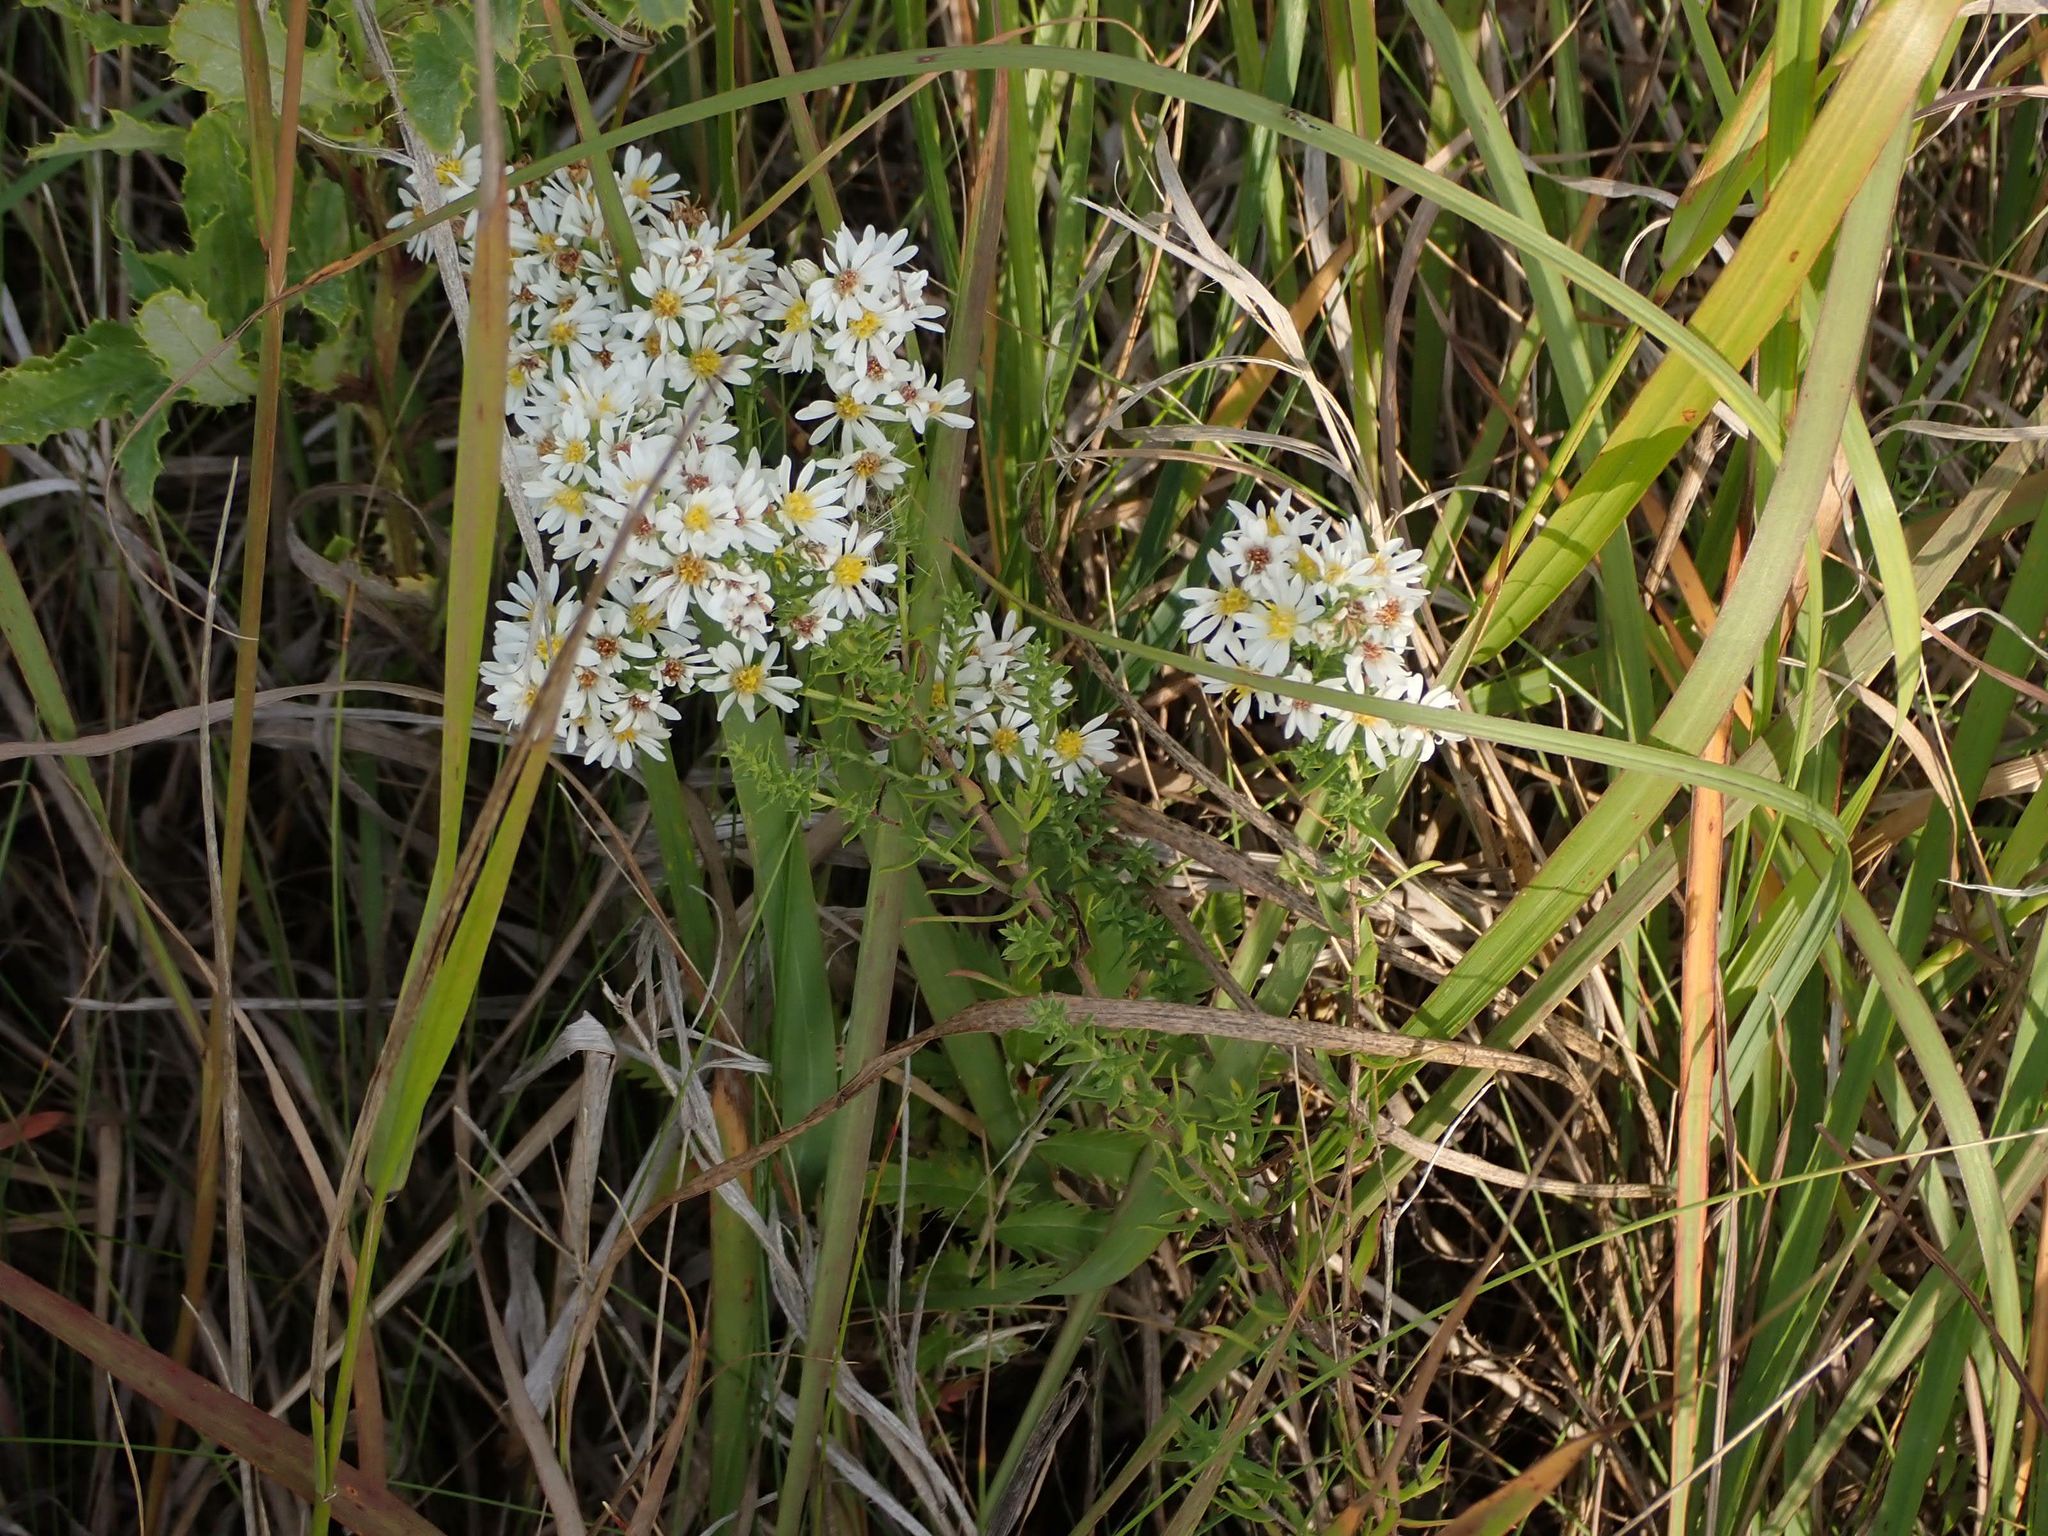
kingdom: Plantae
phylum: Tracheophyta
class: Magnoliopsida
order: Asterales
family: Asteraceae
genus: Symphyotrichum
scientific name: Symphyotrichum ericoides
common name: Heath aster
